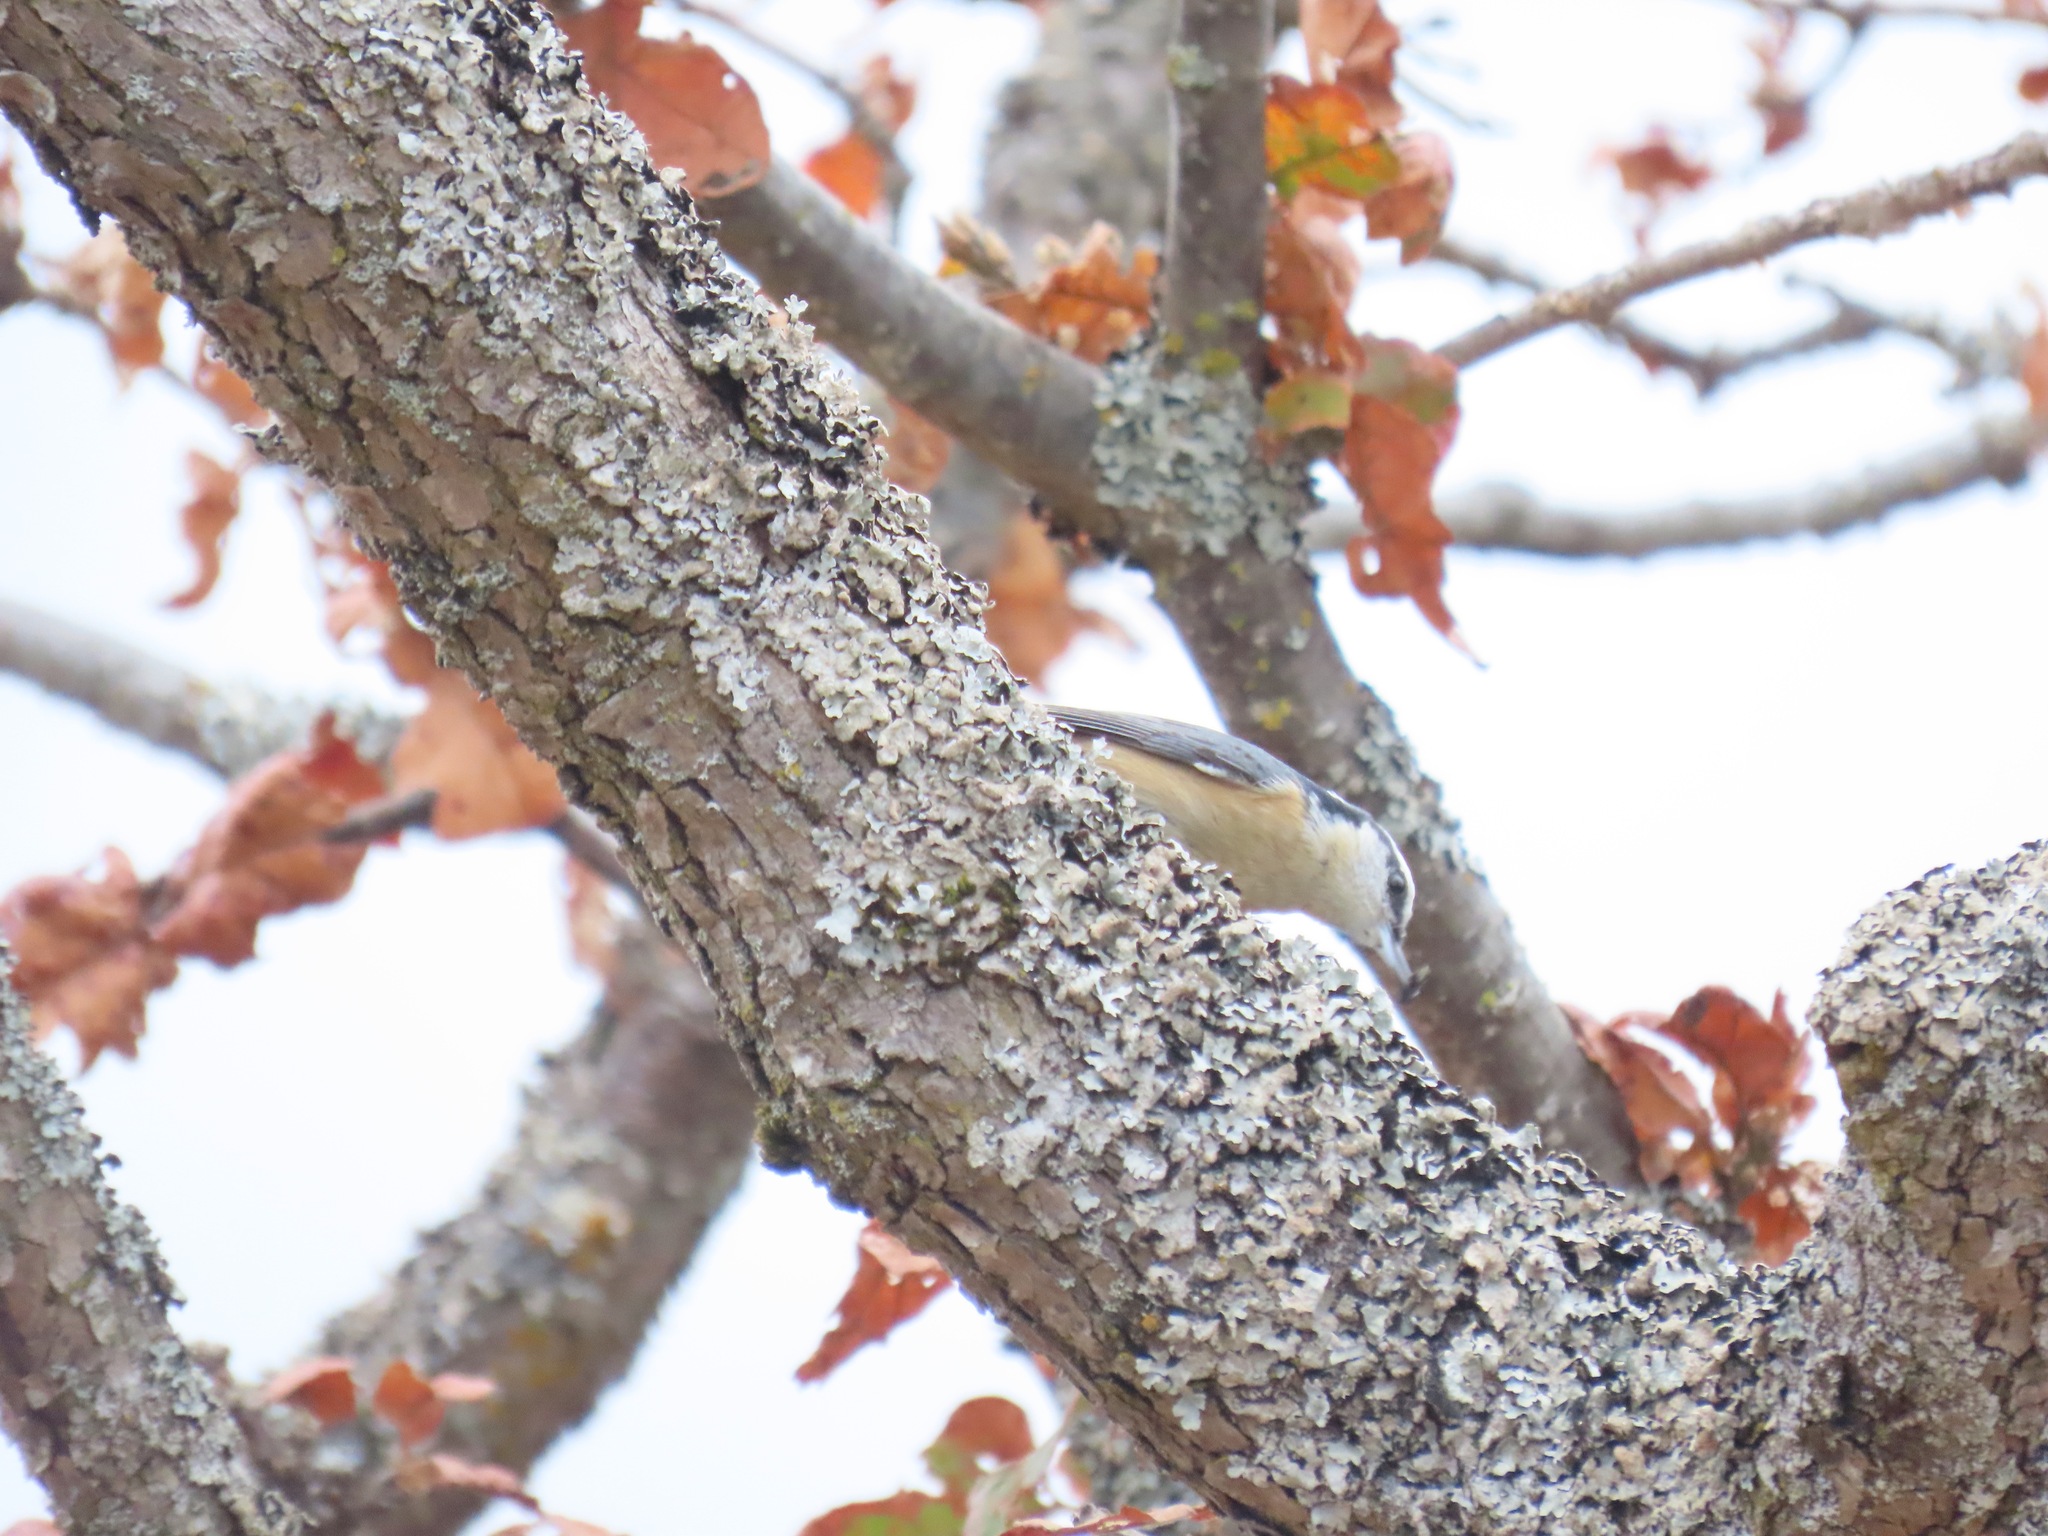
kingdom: Animalia
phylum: Chordata
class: Aves
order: Passeriformes
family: Sittidae
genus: Sitta
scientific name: Sitta canadensis
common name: Red-breasted nuthatch
